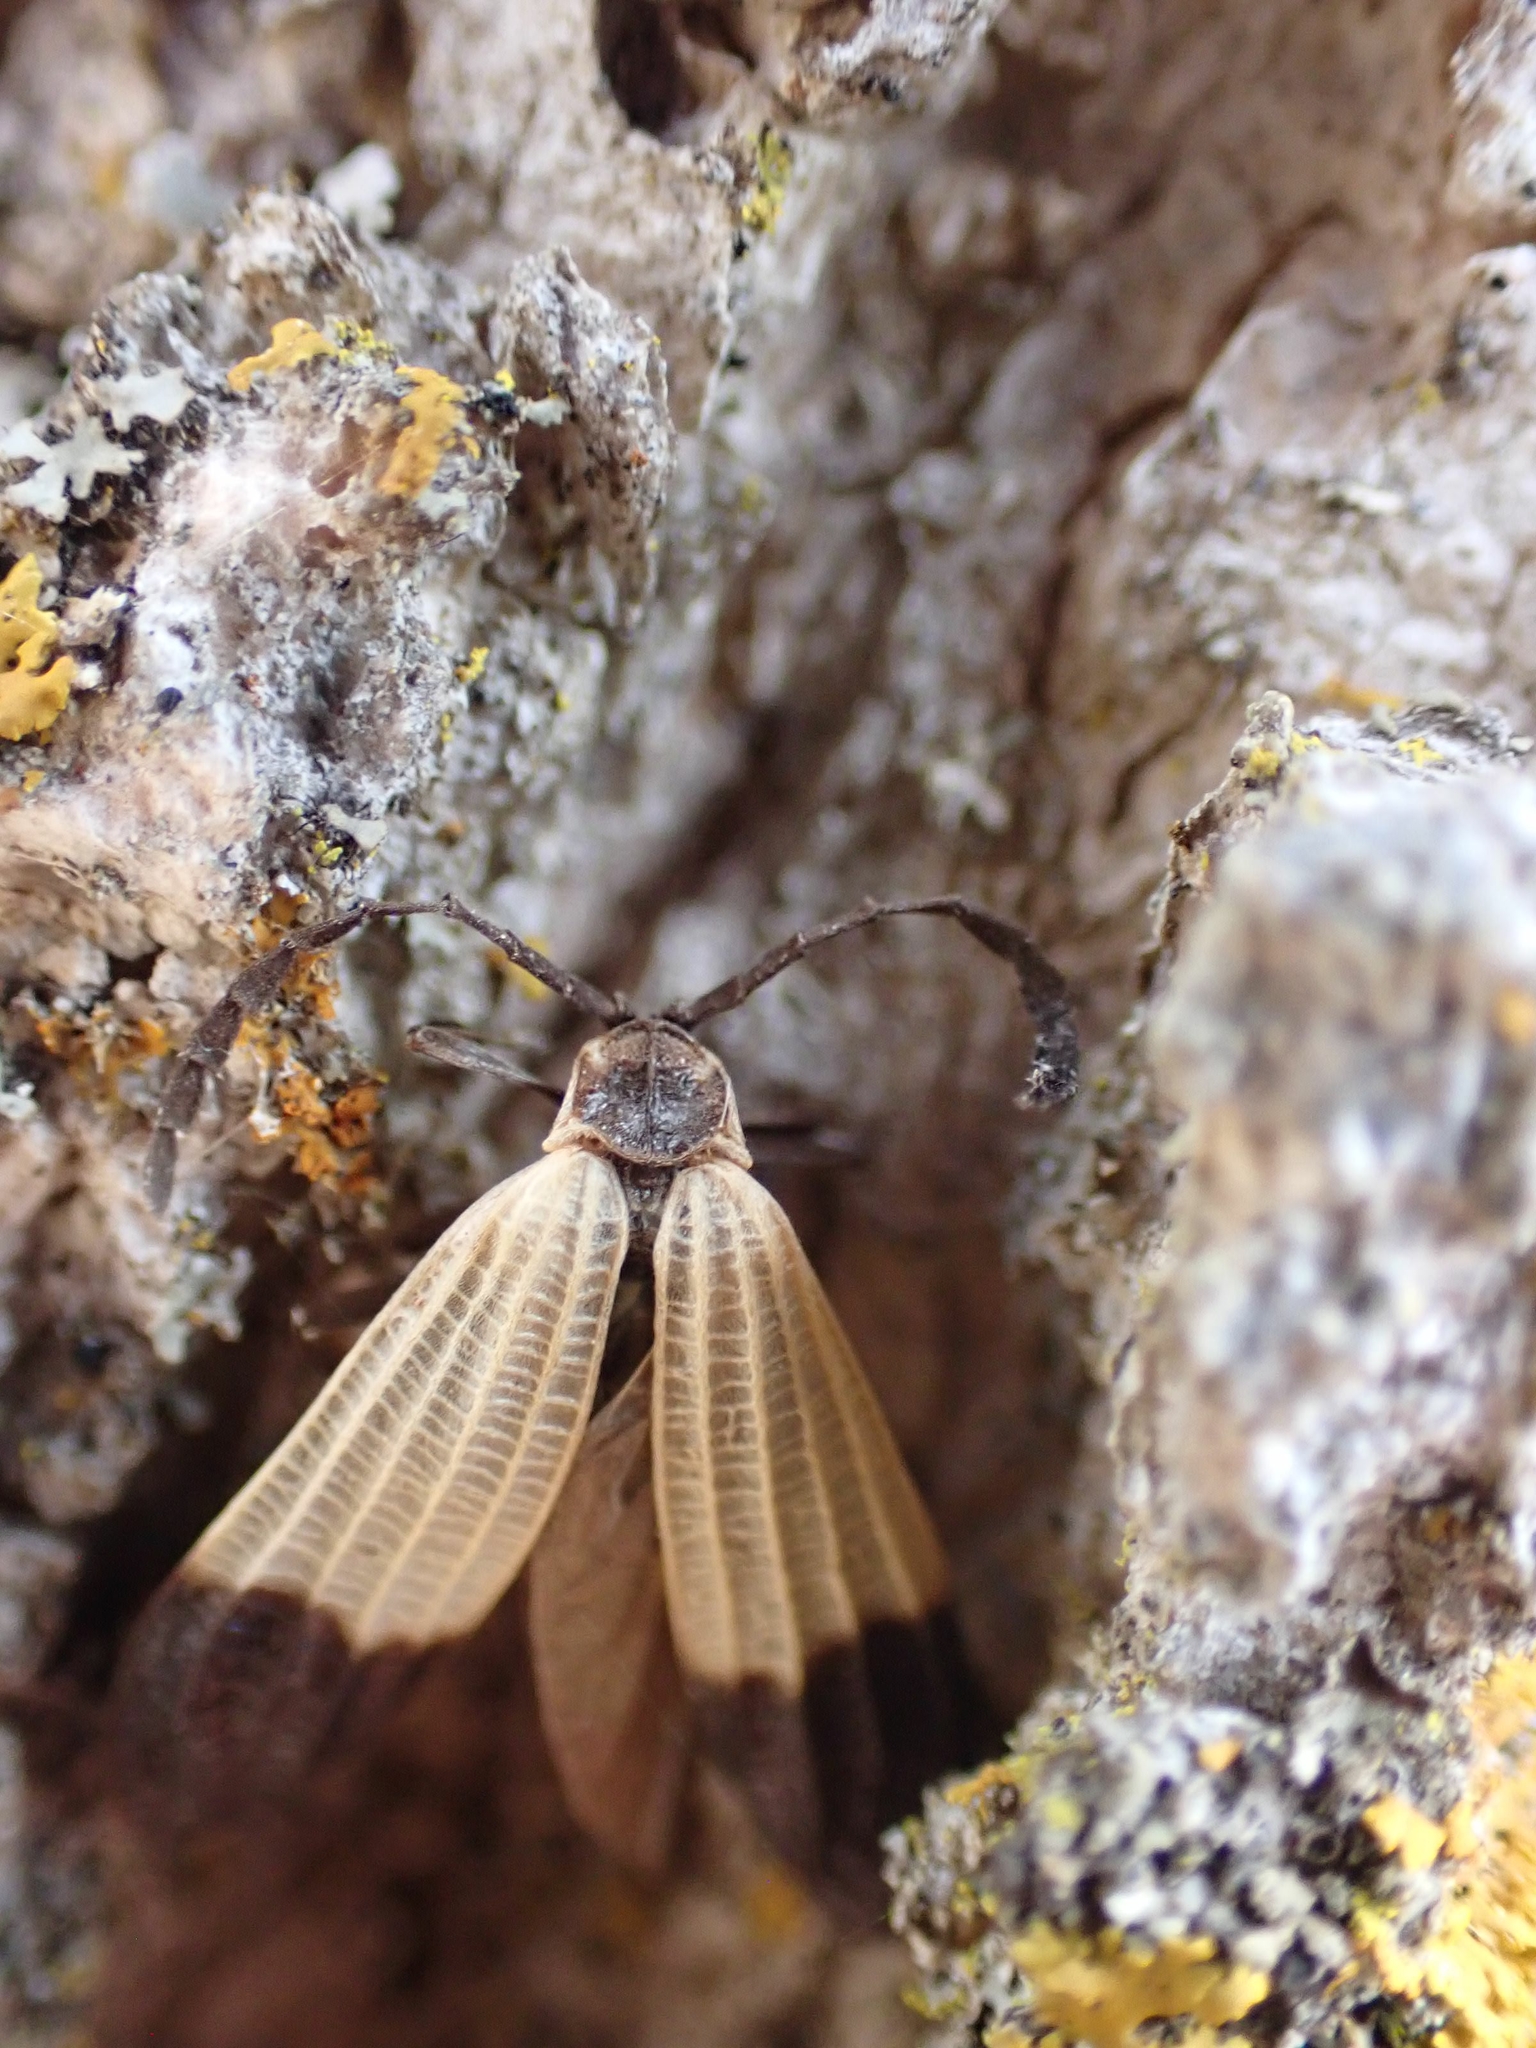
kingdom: Animalia
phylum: Arthropoda
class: Insecta
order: Coleoptera
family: Lycidae
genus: Calopteron
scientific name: Calopteron terminale
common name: End band net-winged beetle
